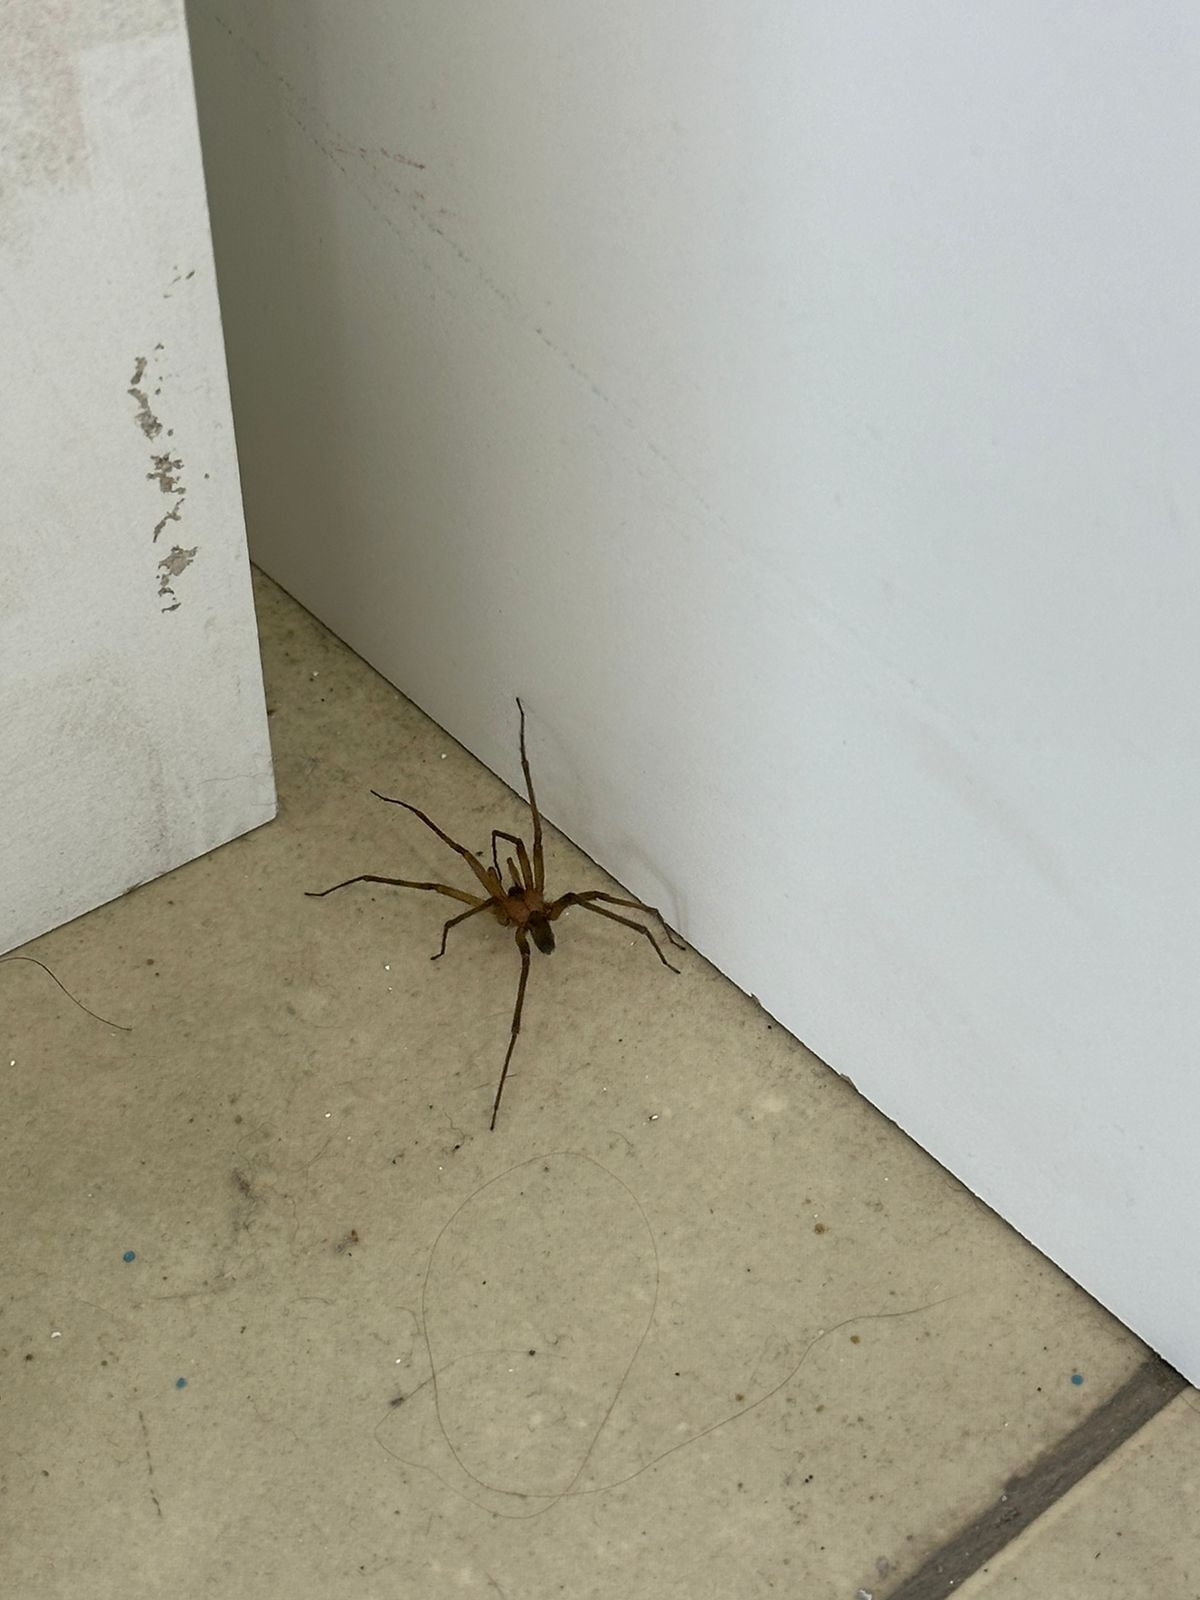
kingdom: Animalia
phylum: Arthropoda
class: Arachnida
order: Araneae
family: Sicariidae
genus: Loxosceles
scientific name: Loxosceles laeta
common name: Chilean recluse spider
